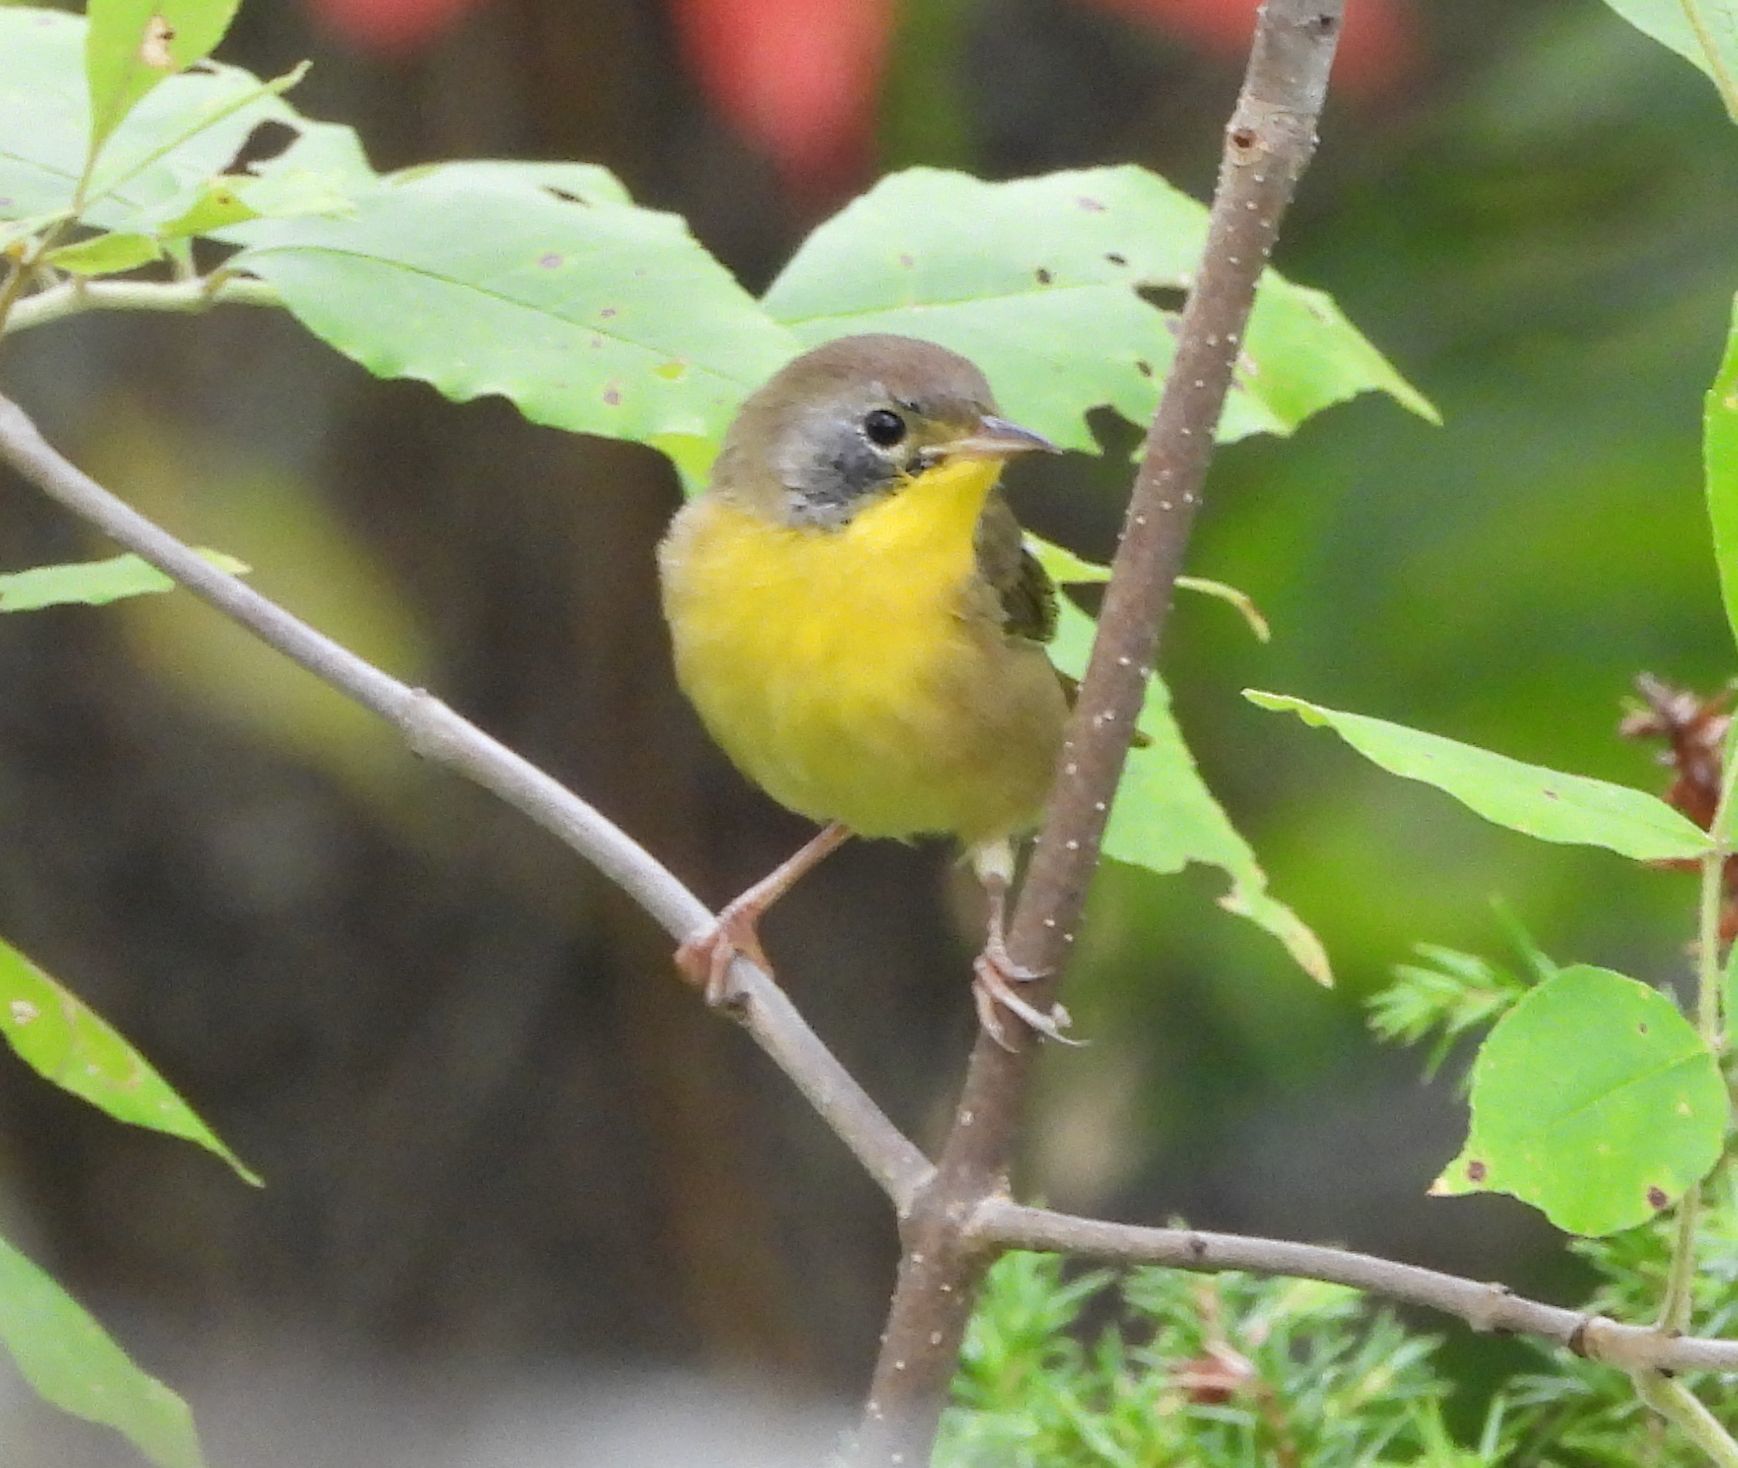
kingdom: Animalia
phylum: Chordata
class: Aves
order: Passeriformes
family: Parulidae
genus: Geothlypis
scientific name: Geothlypis trichas
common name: Common yellowthroat
